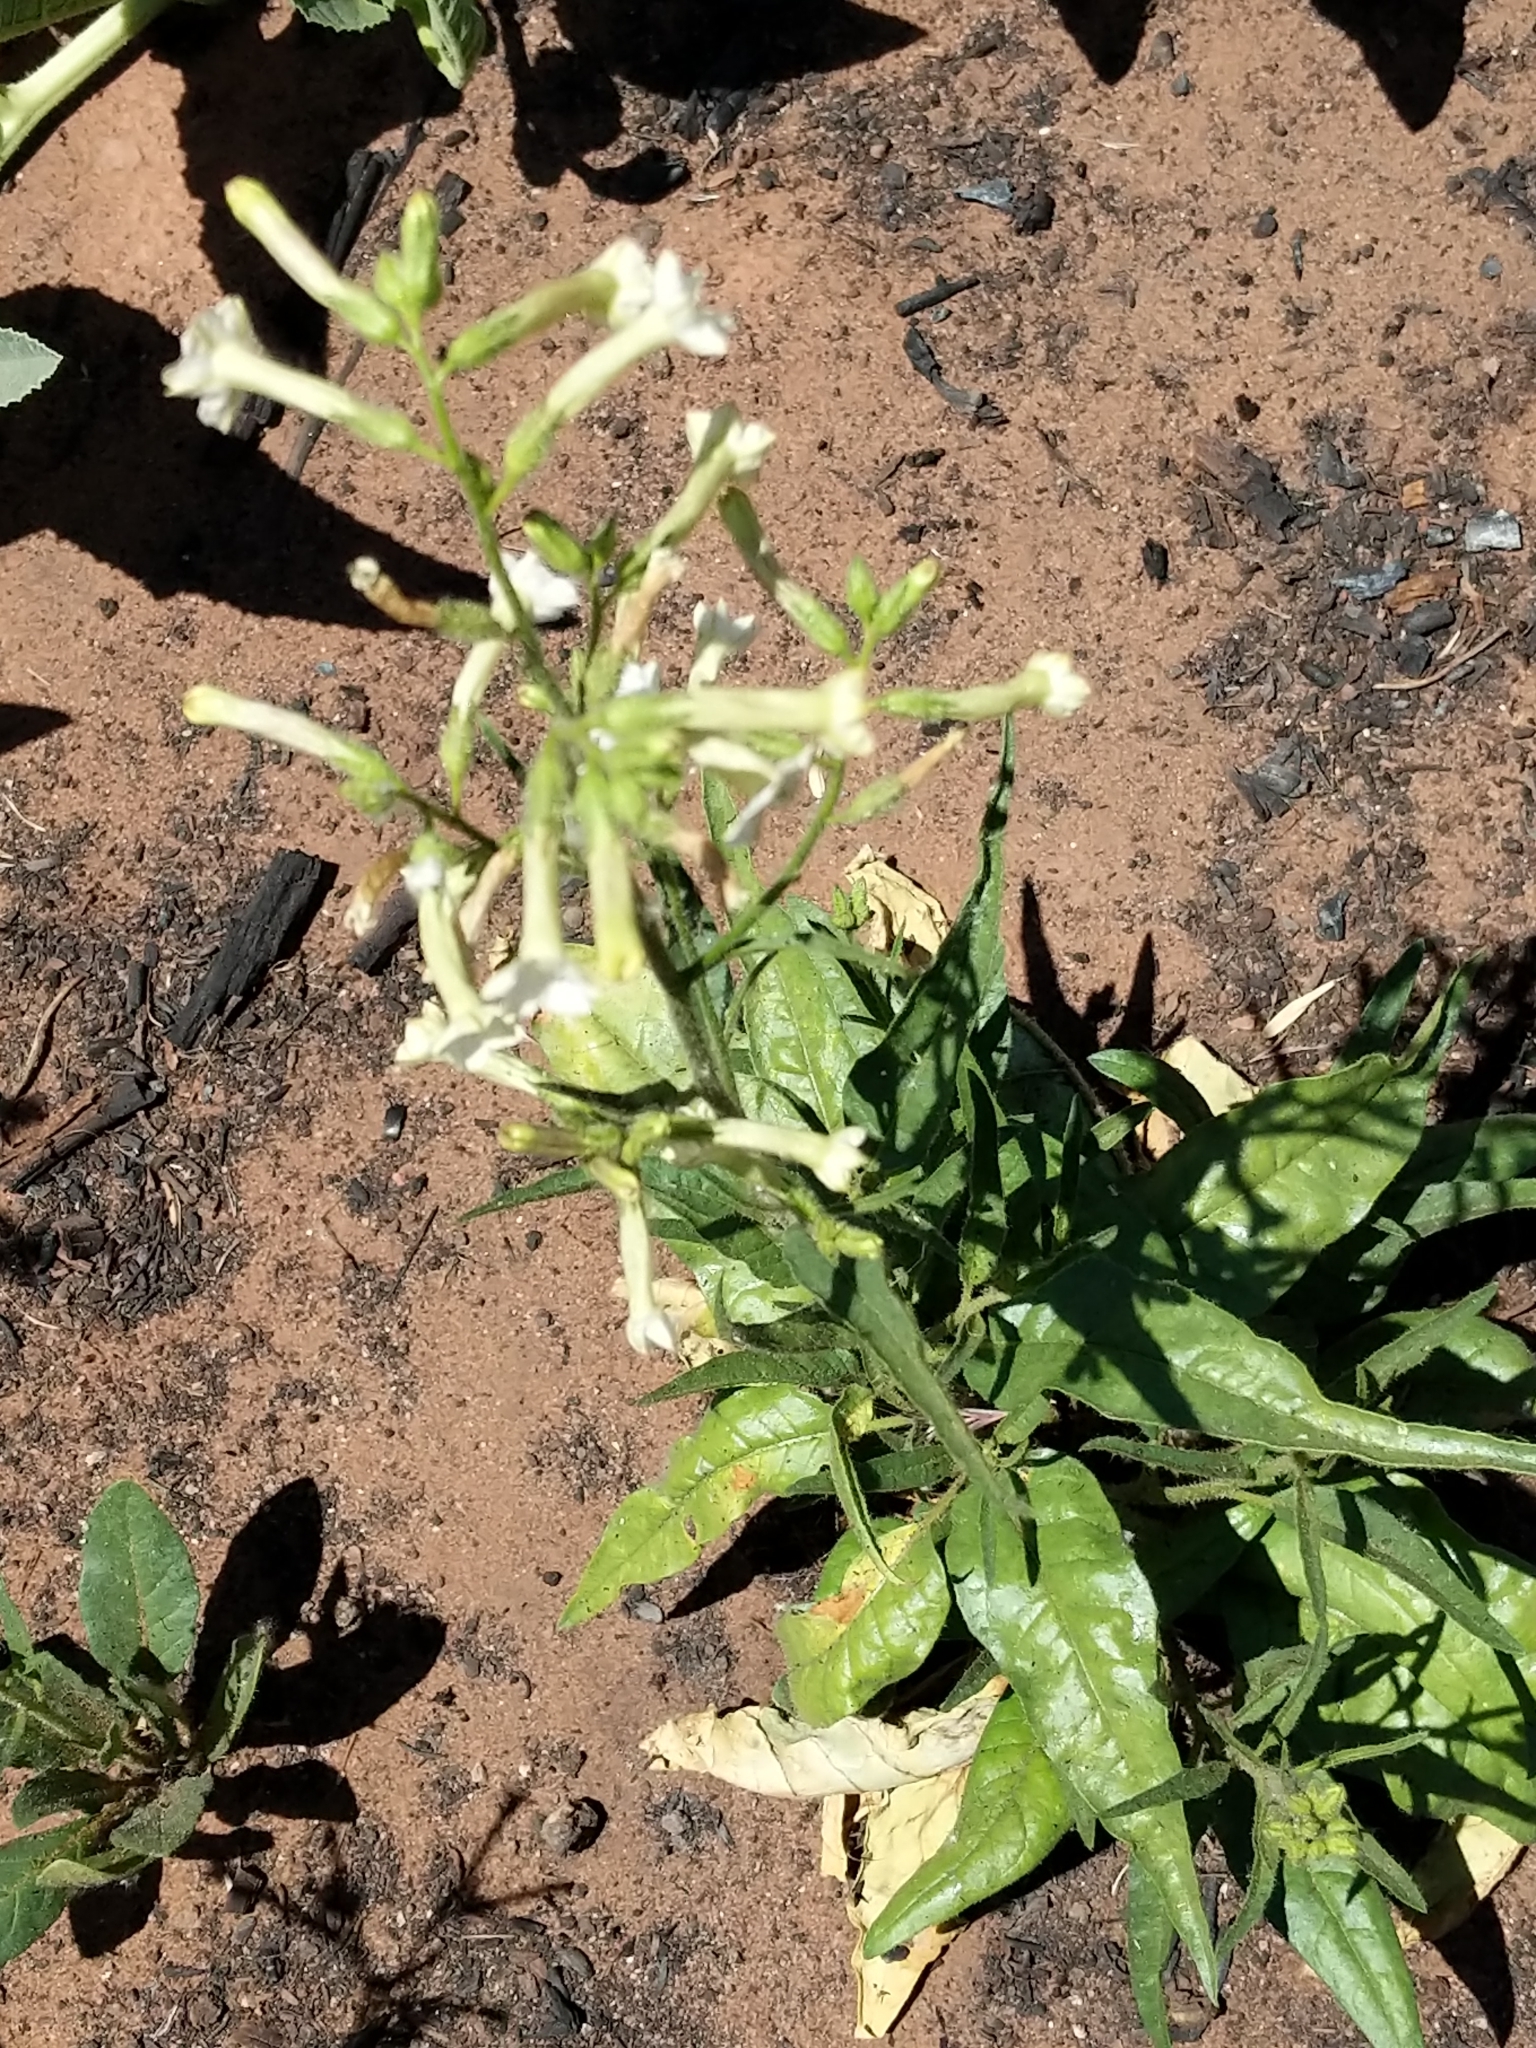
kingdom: Plantae
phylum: Tracheophyta
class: Magnoliopsida
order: Solanales
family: Solanaceae
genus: Nicotiana
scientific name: Nicotiana attenuata
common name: Coyote tobacco
